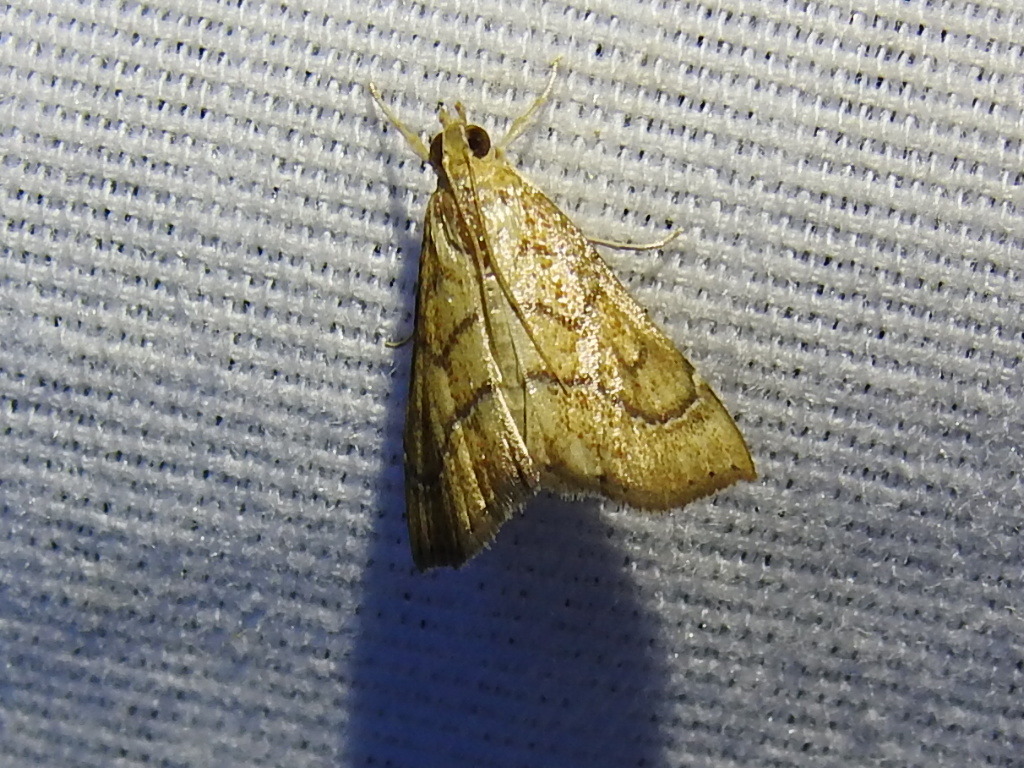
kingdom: Animalia
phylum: Arthropoda
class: Insecta
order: Lepidoptera
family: Crambidae
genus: Aethiophysa
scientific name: Aethiophysa dualis
